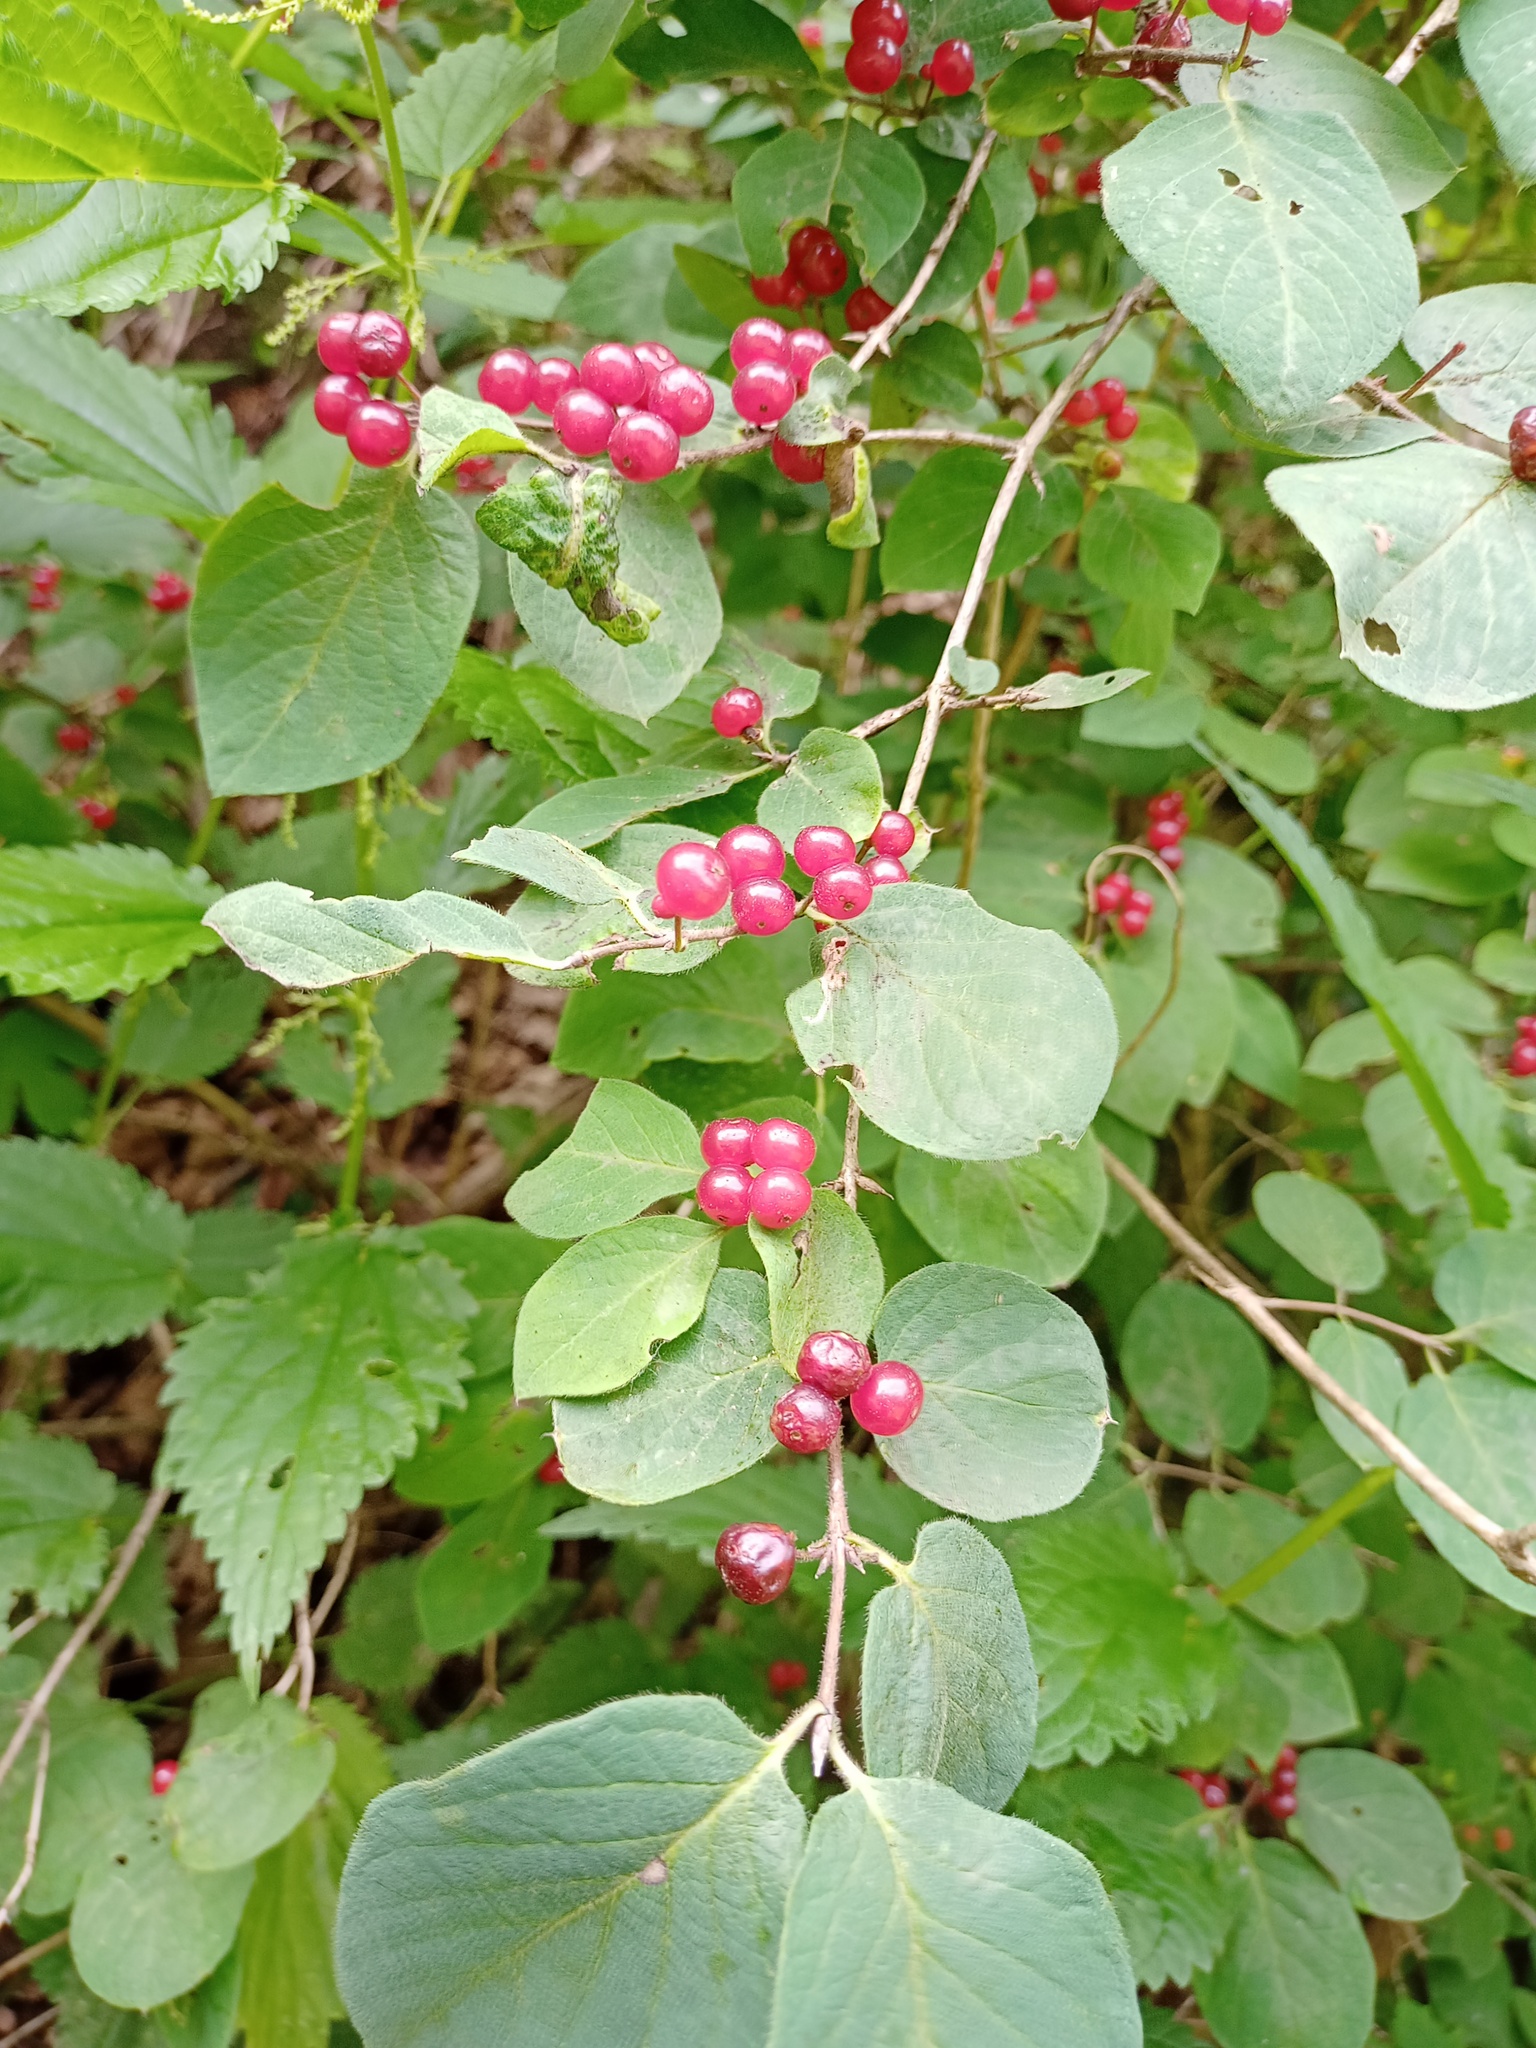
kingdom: Plantae
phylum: Tracheophyta
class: Magnoliopsida
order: Dipsacales
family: Caprifoliaceae
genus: Lonicera
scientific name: Lonicera xylosteum
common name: Fly honeysuckle
